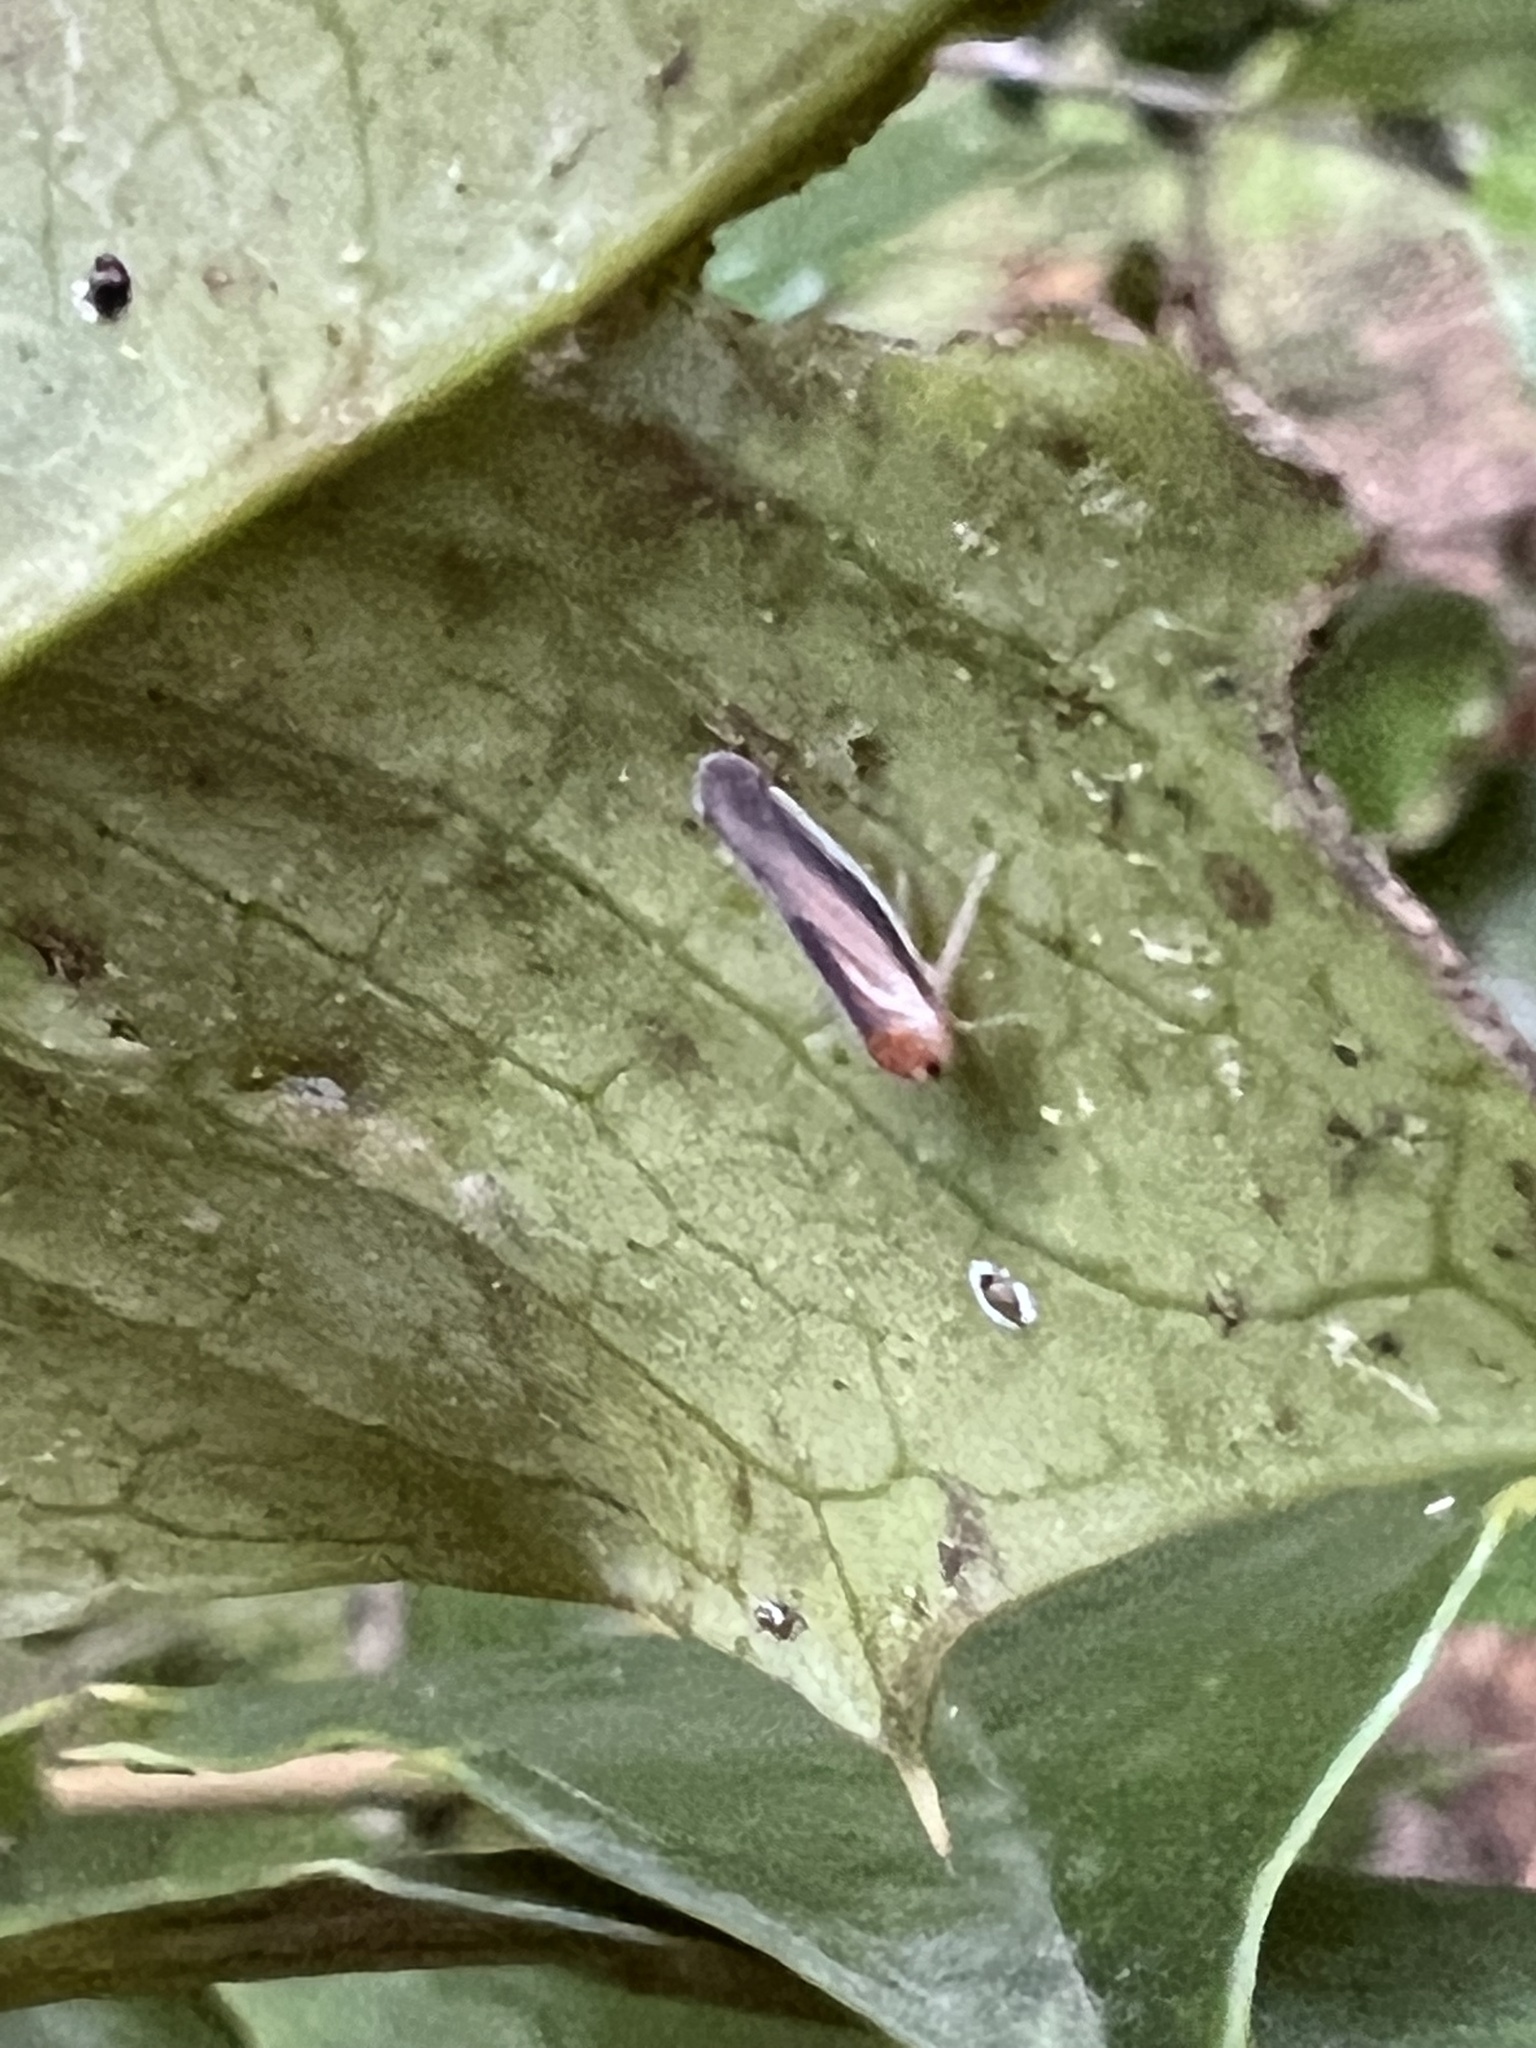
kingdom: Animalia
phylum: Arthropoda
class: Insecta
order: Hemiptera
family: Derbidae
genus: Omolicna
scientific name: Omolicna uhleri
